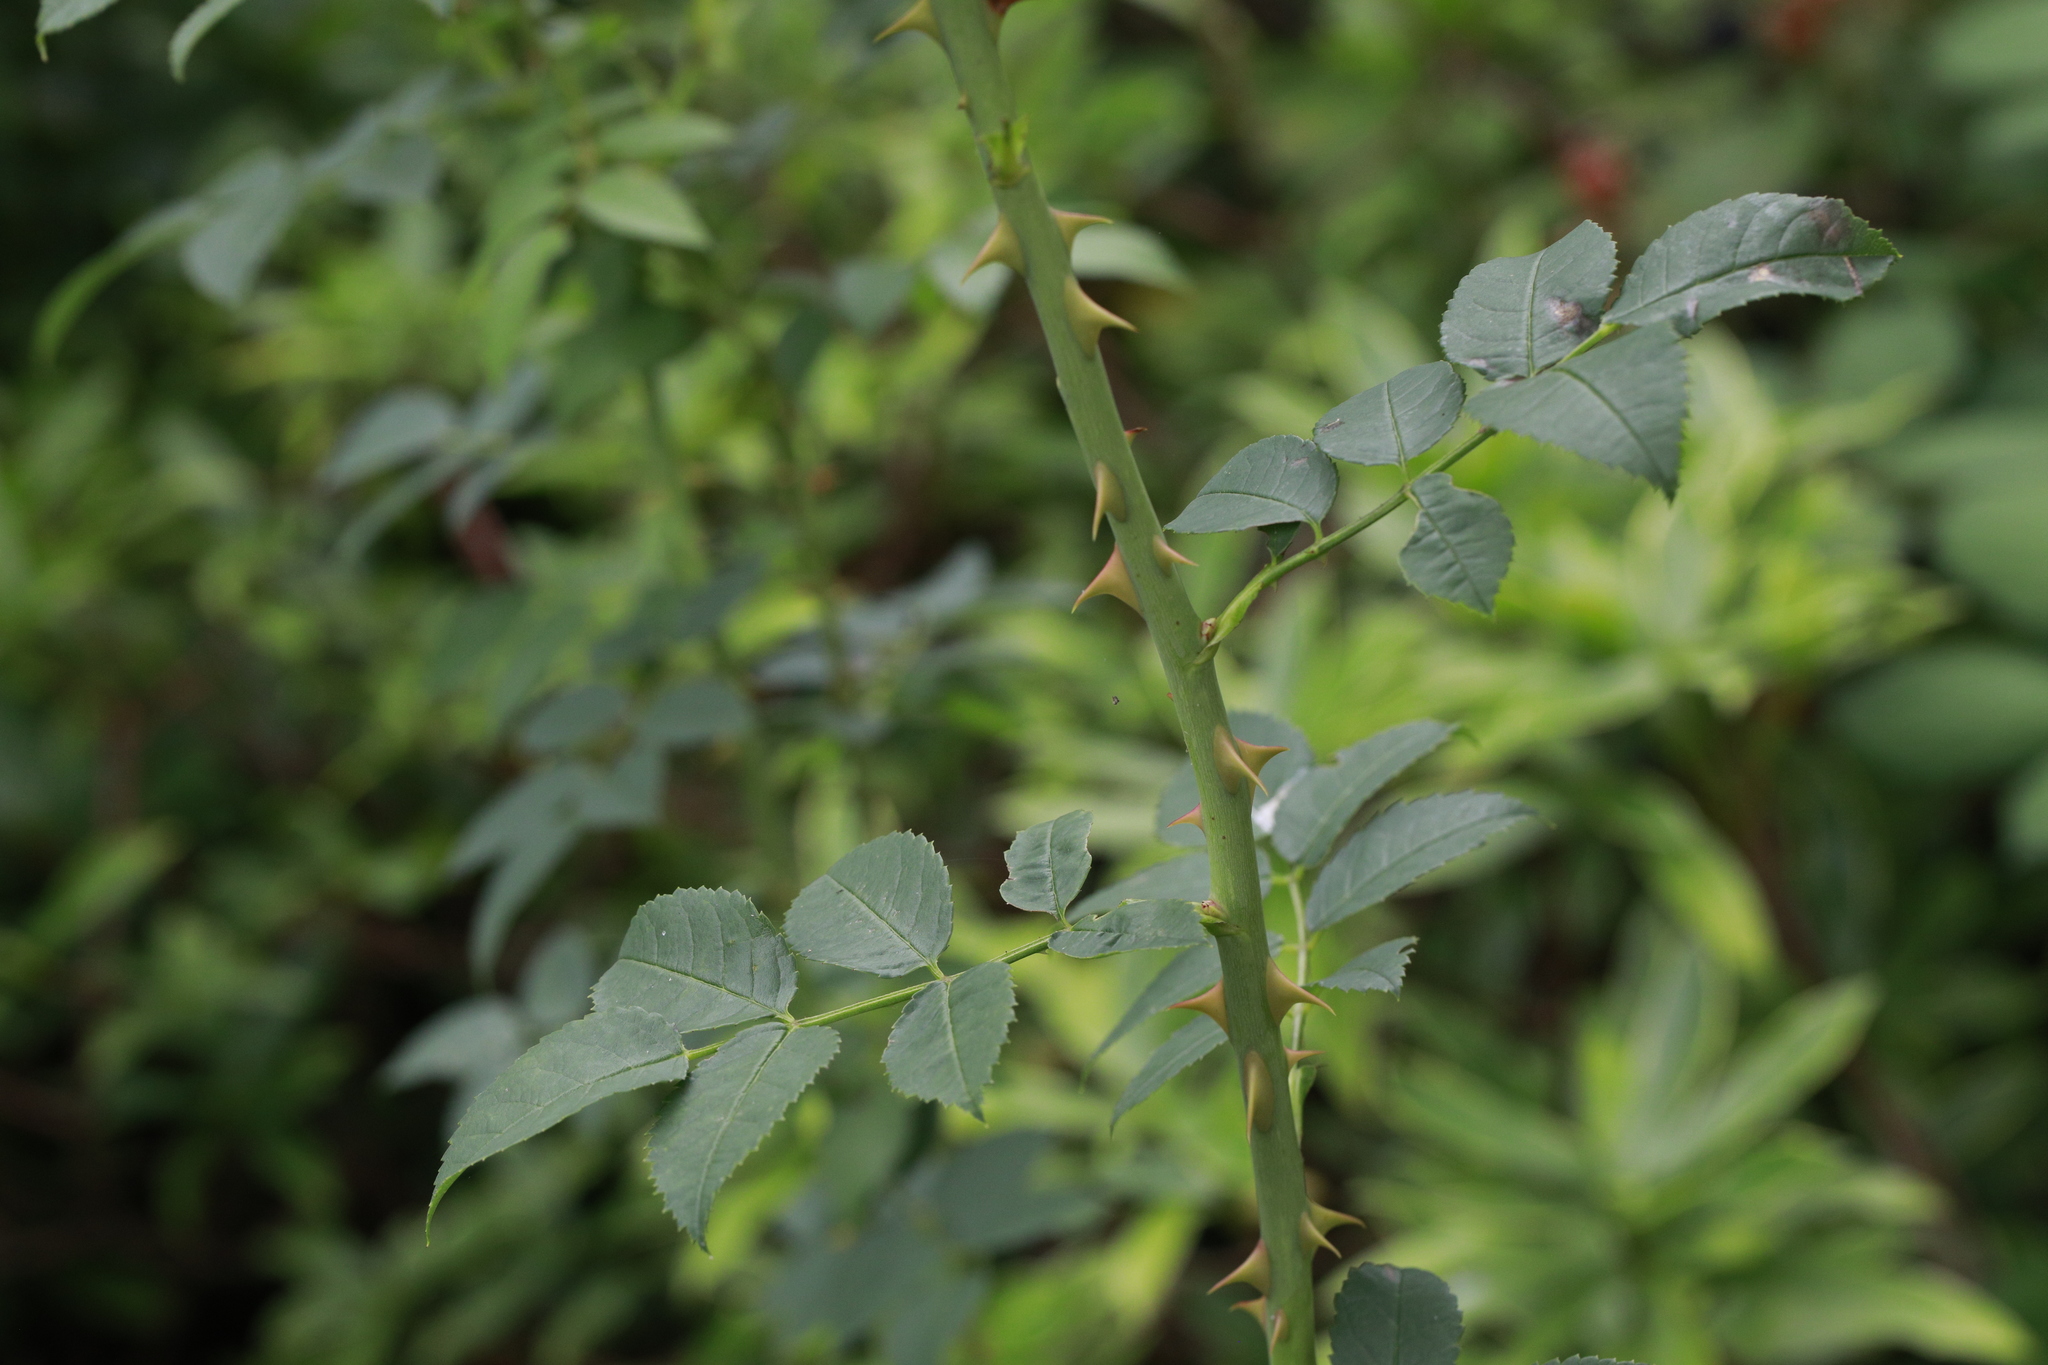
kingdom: Plantae
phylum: Tracheophyta
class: Magnoliopsida
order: Rosales
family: Rosaceae
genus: Rosa
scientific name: Rosa canina
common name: Dog rose
